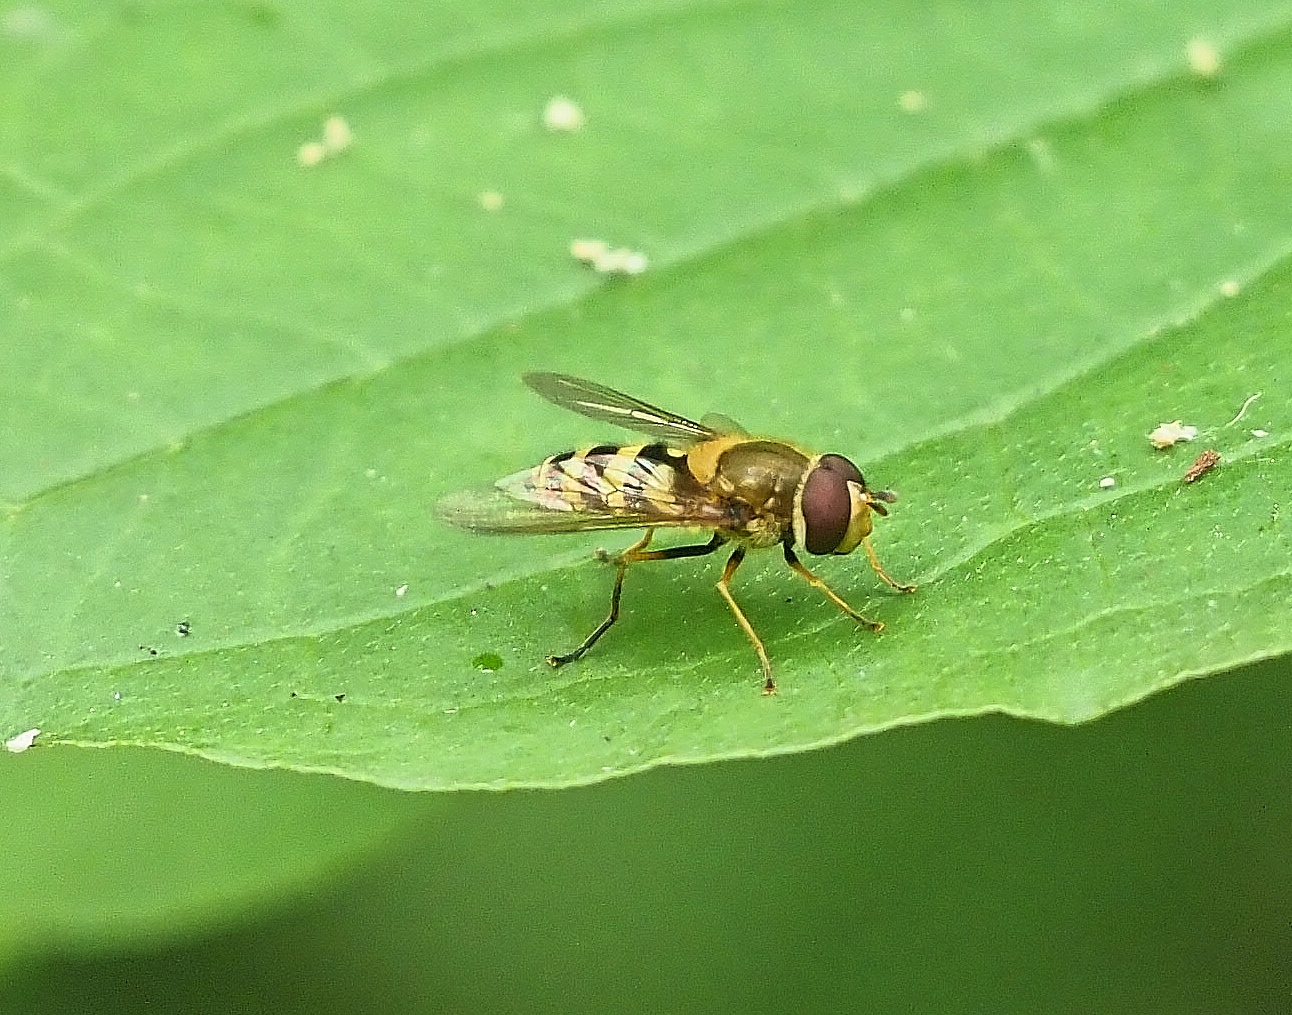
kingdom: Animalia
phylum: Arthropoda
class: Insecta
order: Diptera
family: Syrphidae
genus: Syrphus
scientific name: Syrphus
